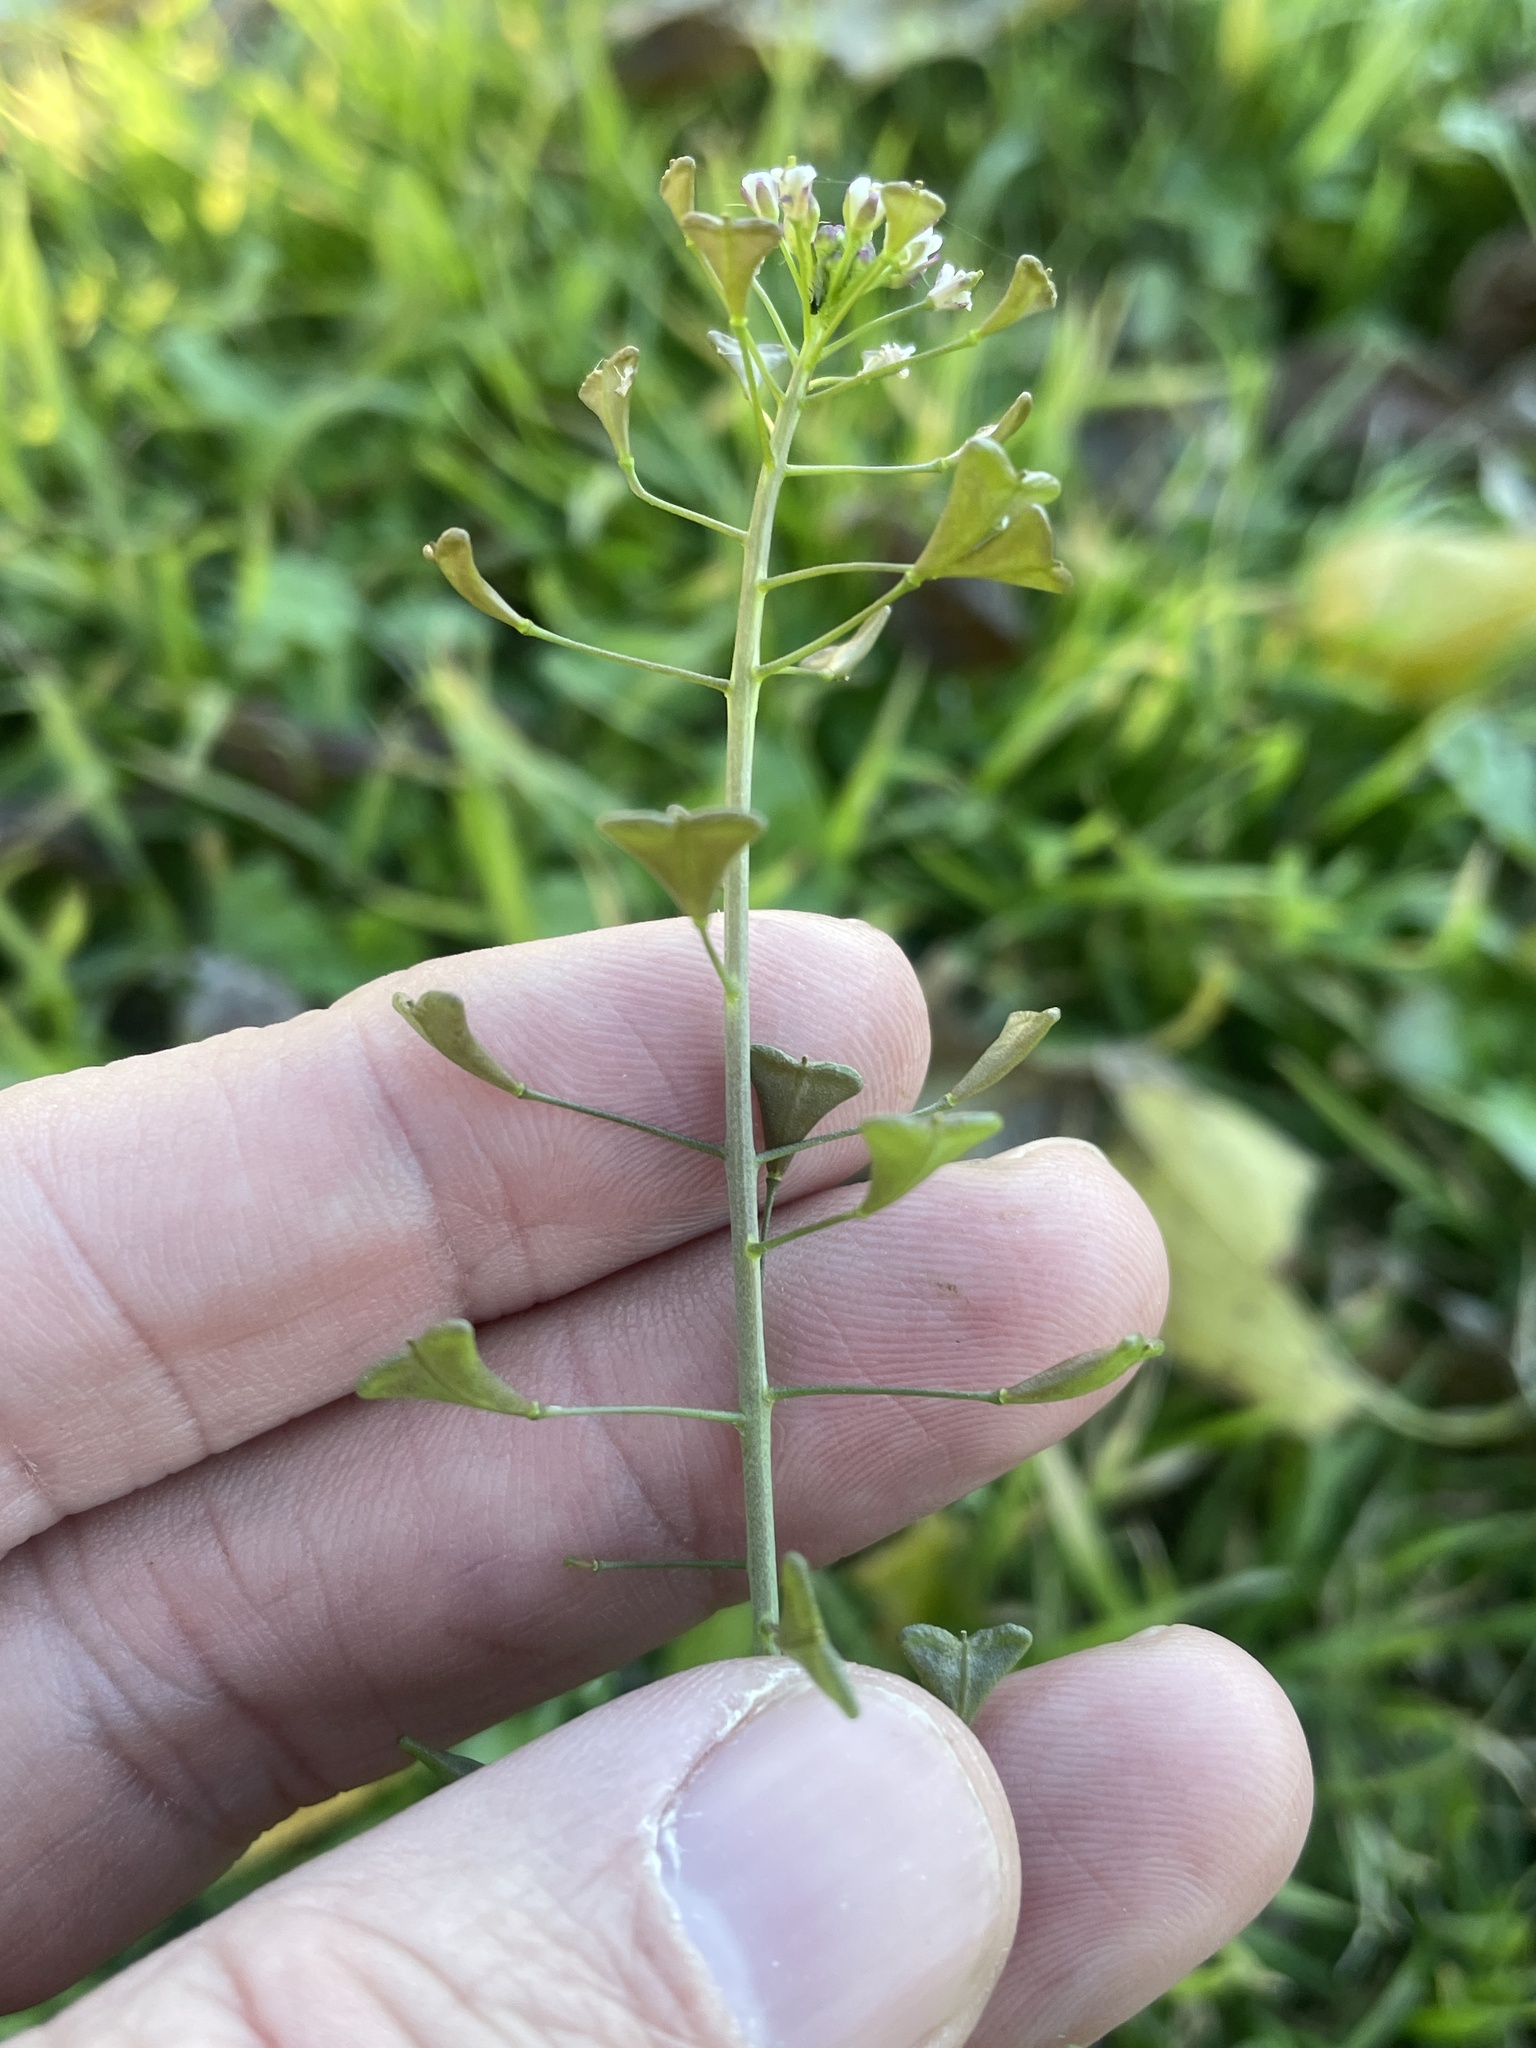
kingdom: Plantae
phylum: Tracheophyta
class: Magnoliopsida
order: Brassicales
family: Brassicaceae
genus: Capsella
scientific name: Capsella bursa-pastoris
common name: Shepherd's purse
